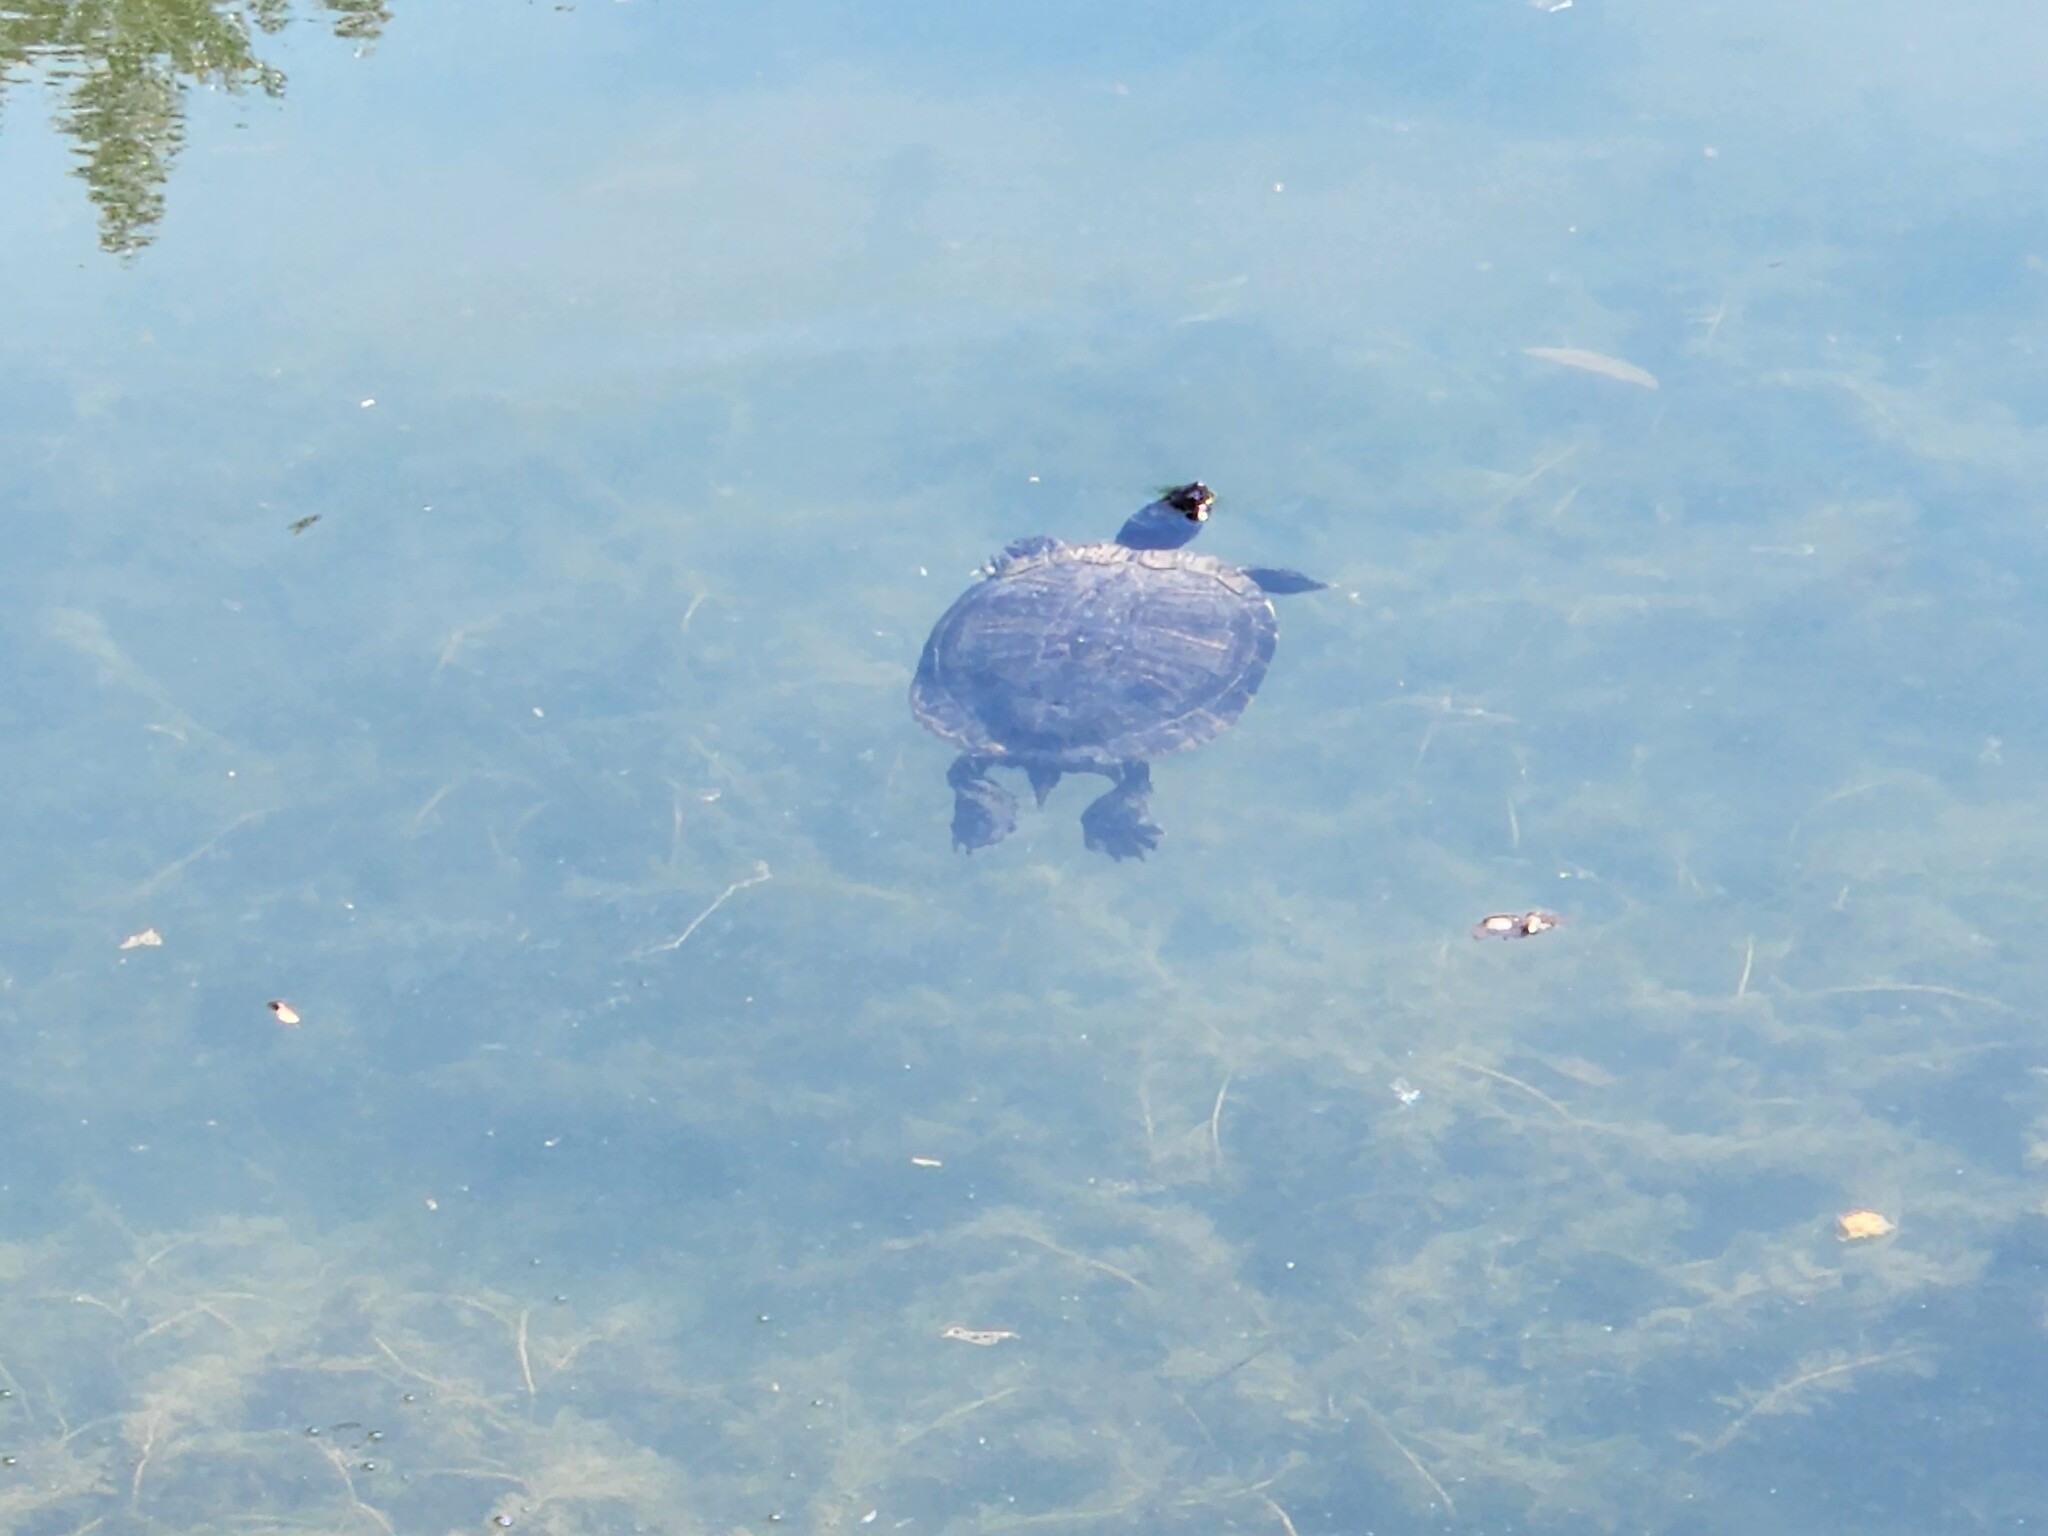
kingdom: Animalia
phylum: Chordata
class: Testudines
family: Emydidae
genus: Trachemys
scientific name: Trachemys scripta
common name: Slider
